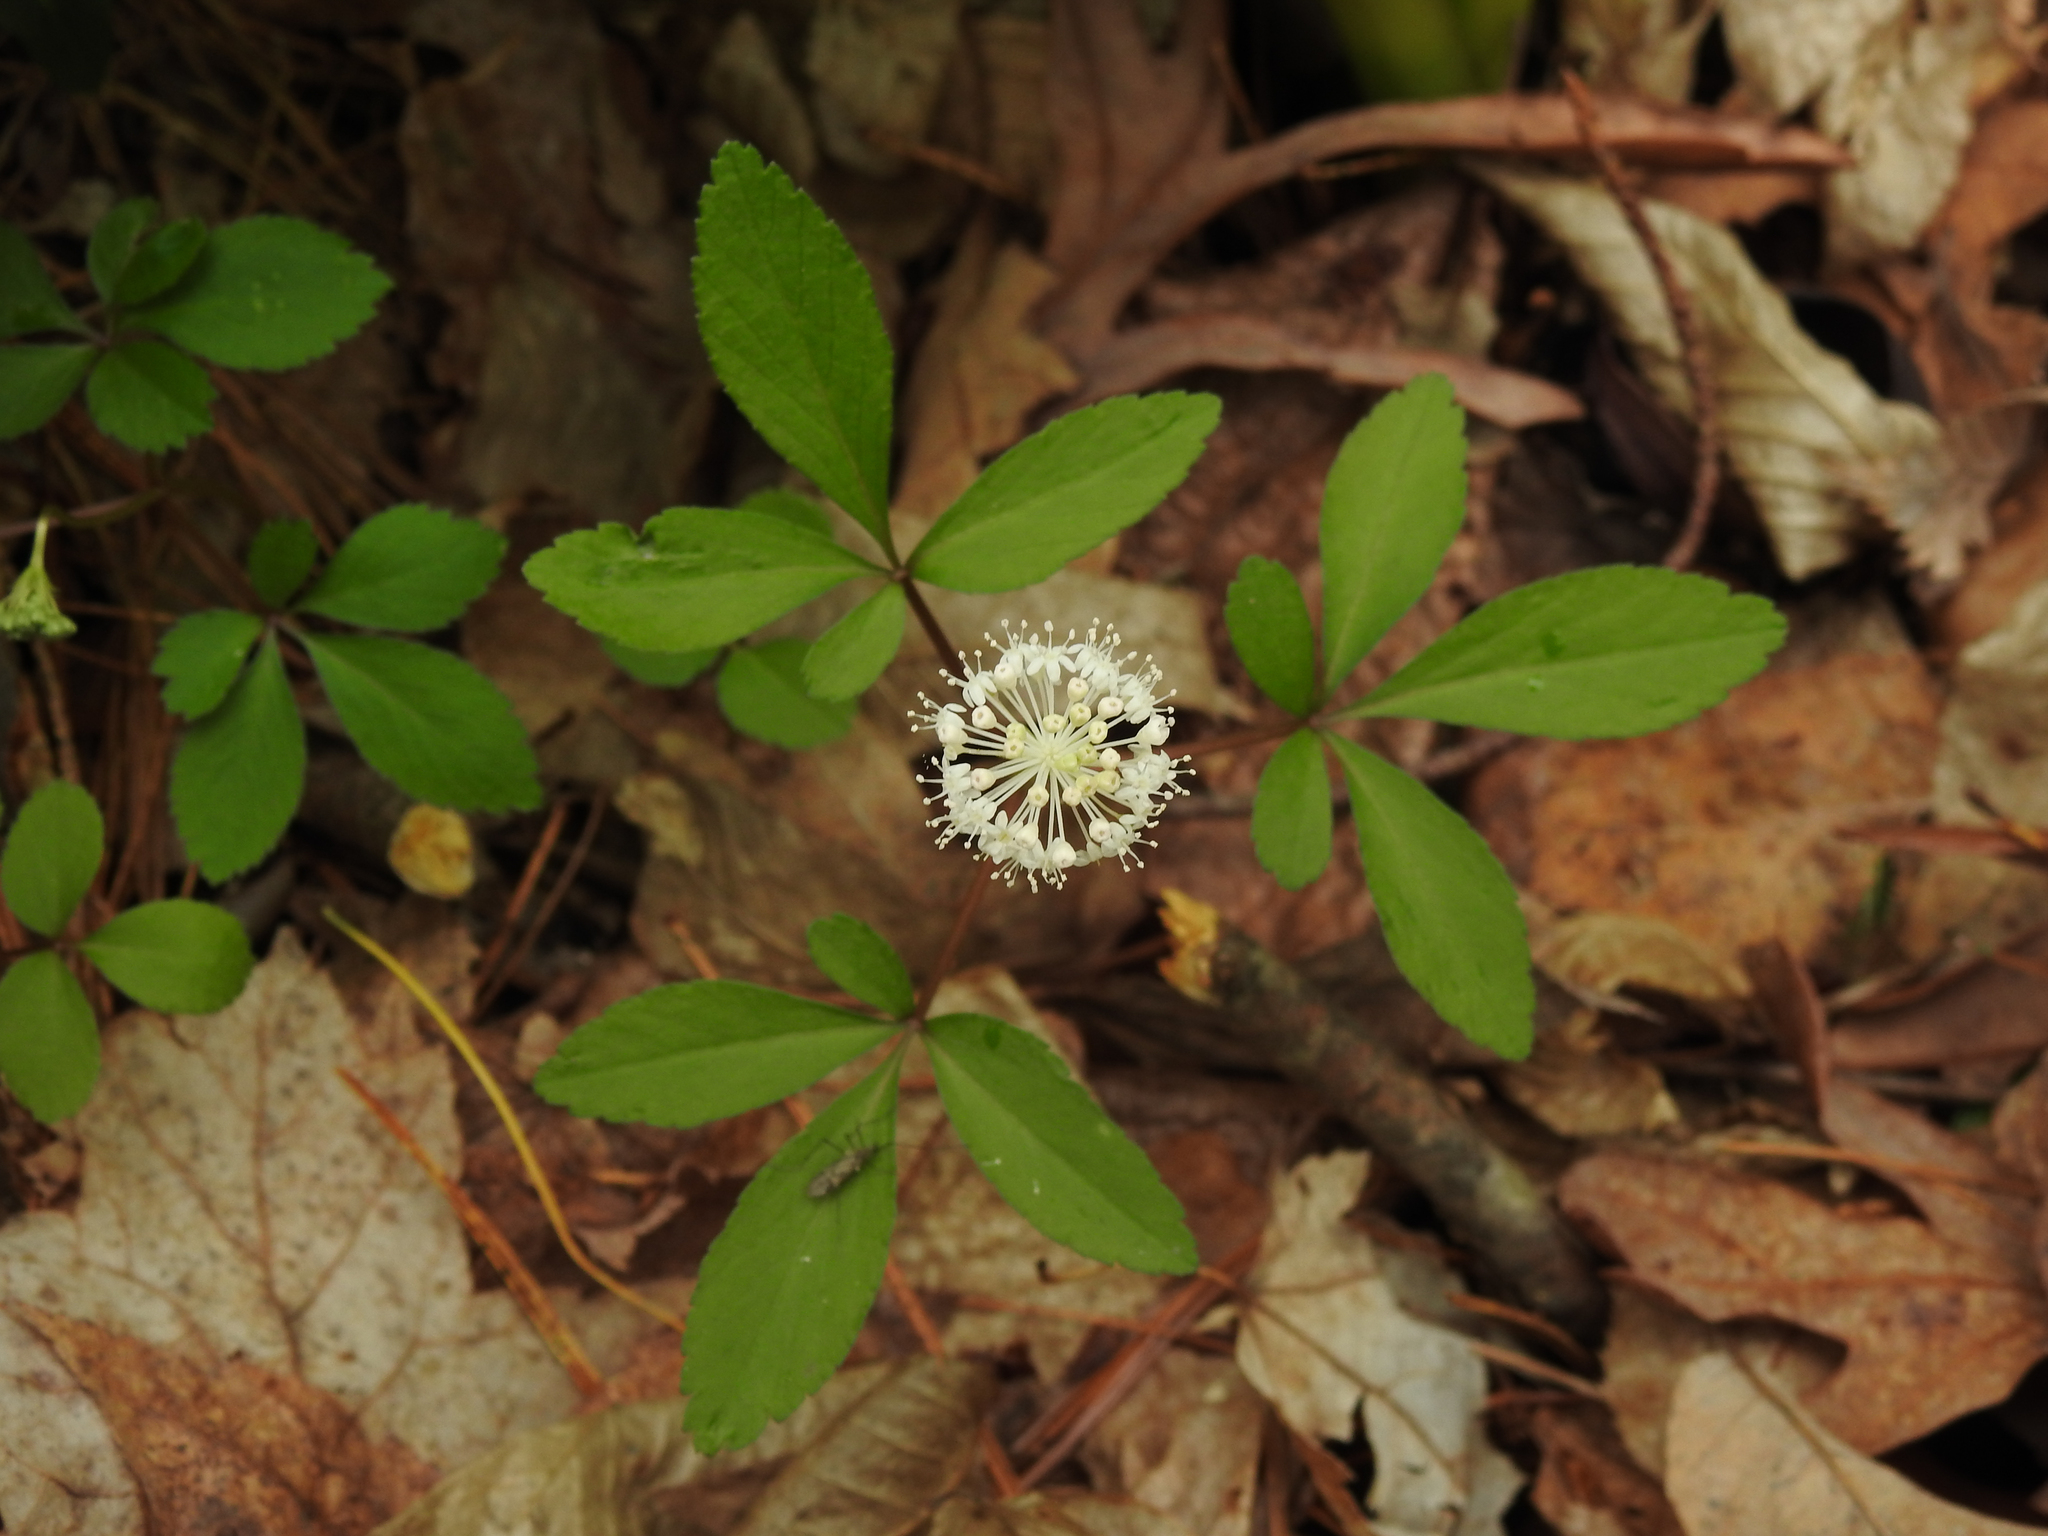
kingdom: Plantae
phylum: Tracheophyta
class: Magnoliopsida
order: Apiales
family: Araliaceae
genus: Panax
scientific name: Panax trifolius
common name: Dwarf ginseng
